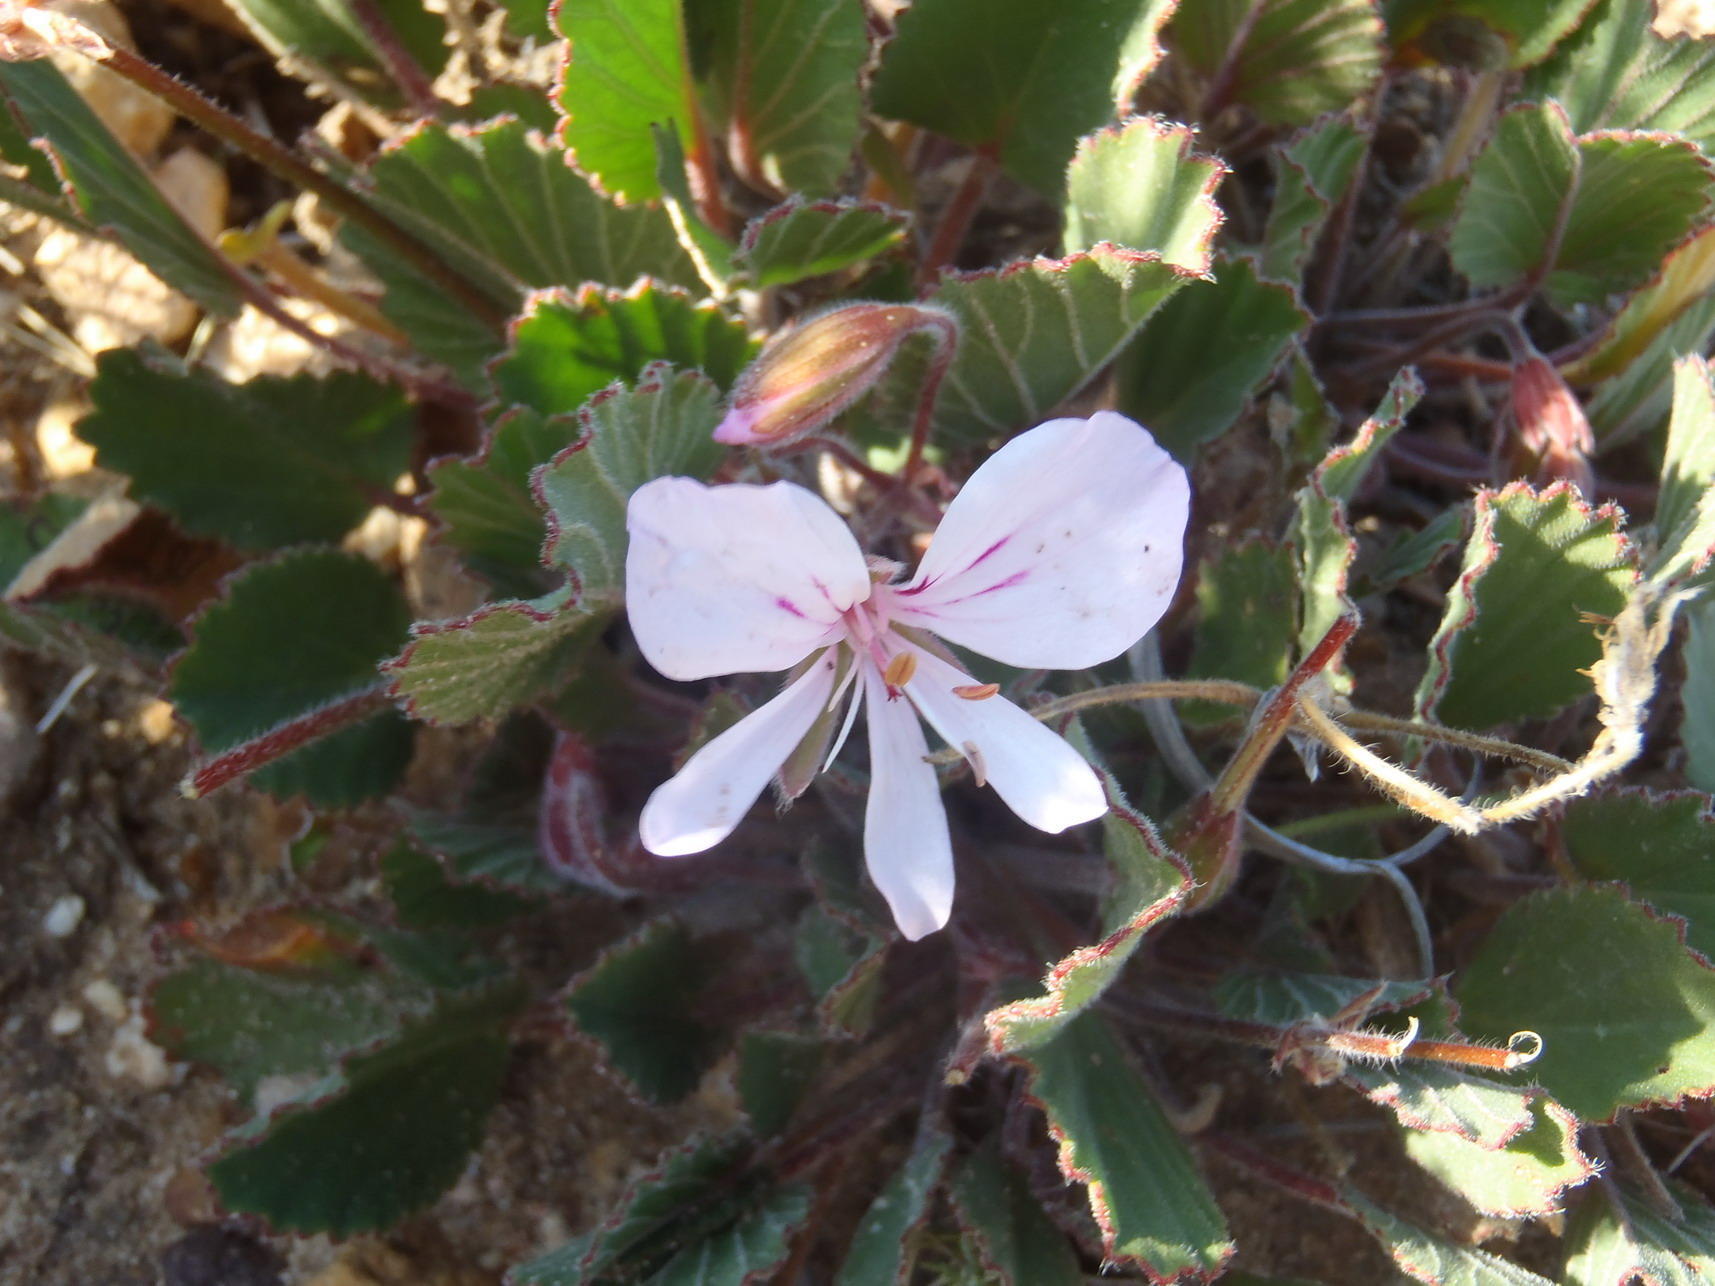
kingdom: Plantae
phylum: Tracheophyta
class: Magnoliopsida
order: Geraniales
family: Geraniaceae
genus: Pelargonium
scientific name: Pelargonium ovale
